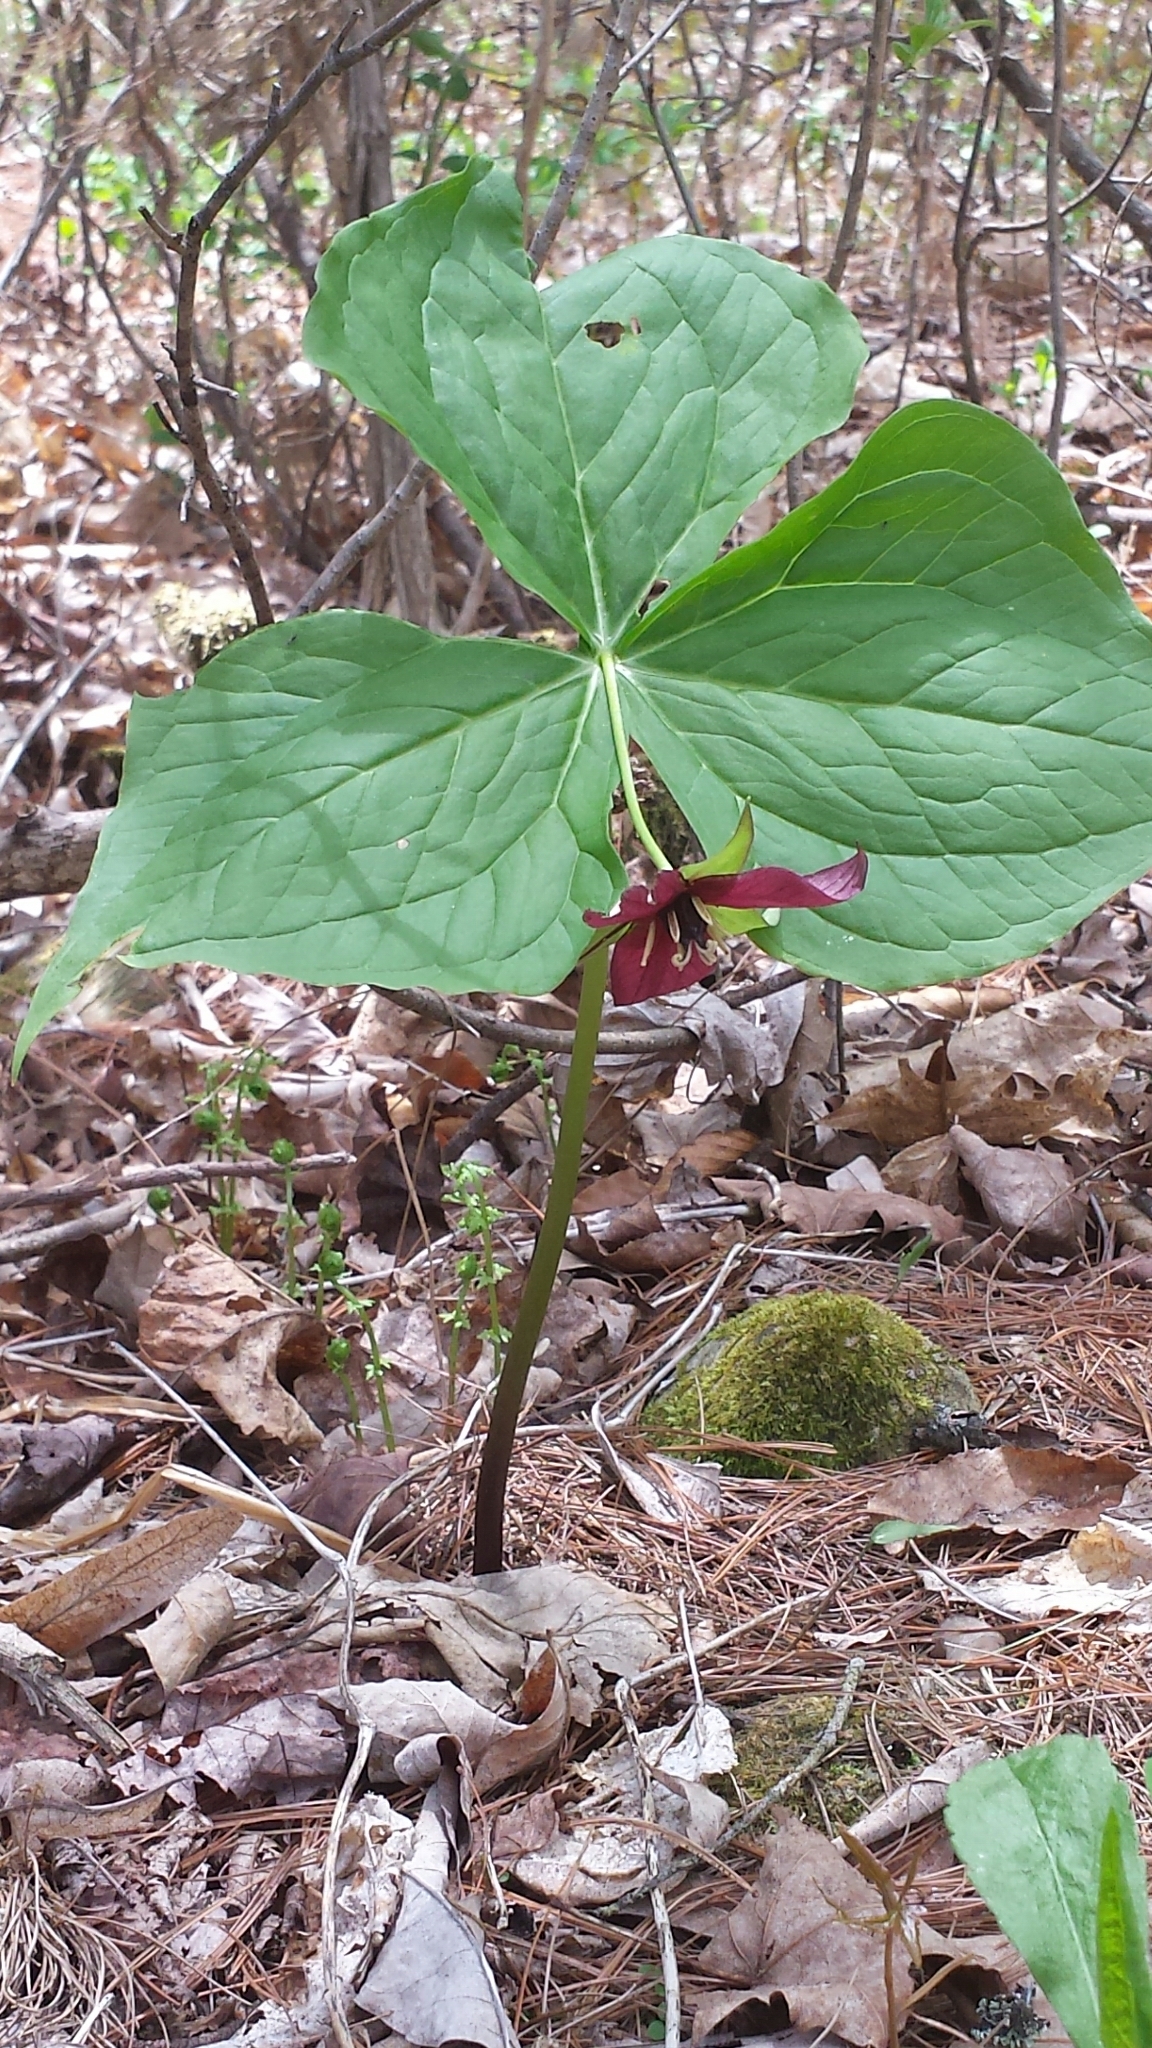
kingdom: Plantae
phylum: Tracheophyta
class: Liliopsida
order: Liliales
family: Melanthiaceae
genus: Trillium
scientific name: Trillium erectum
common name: Purple trillium
